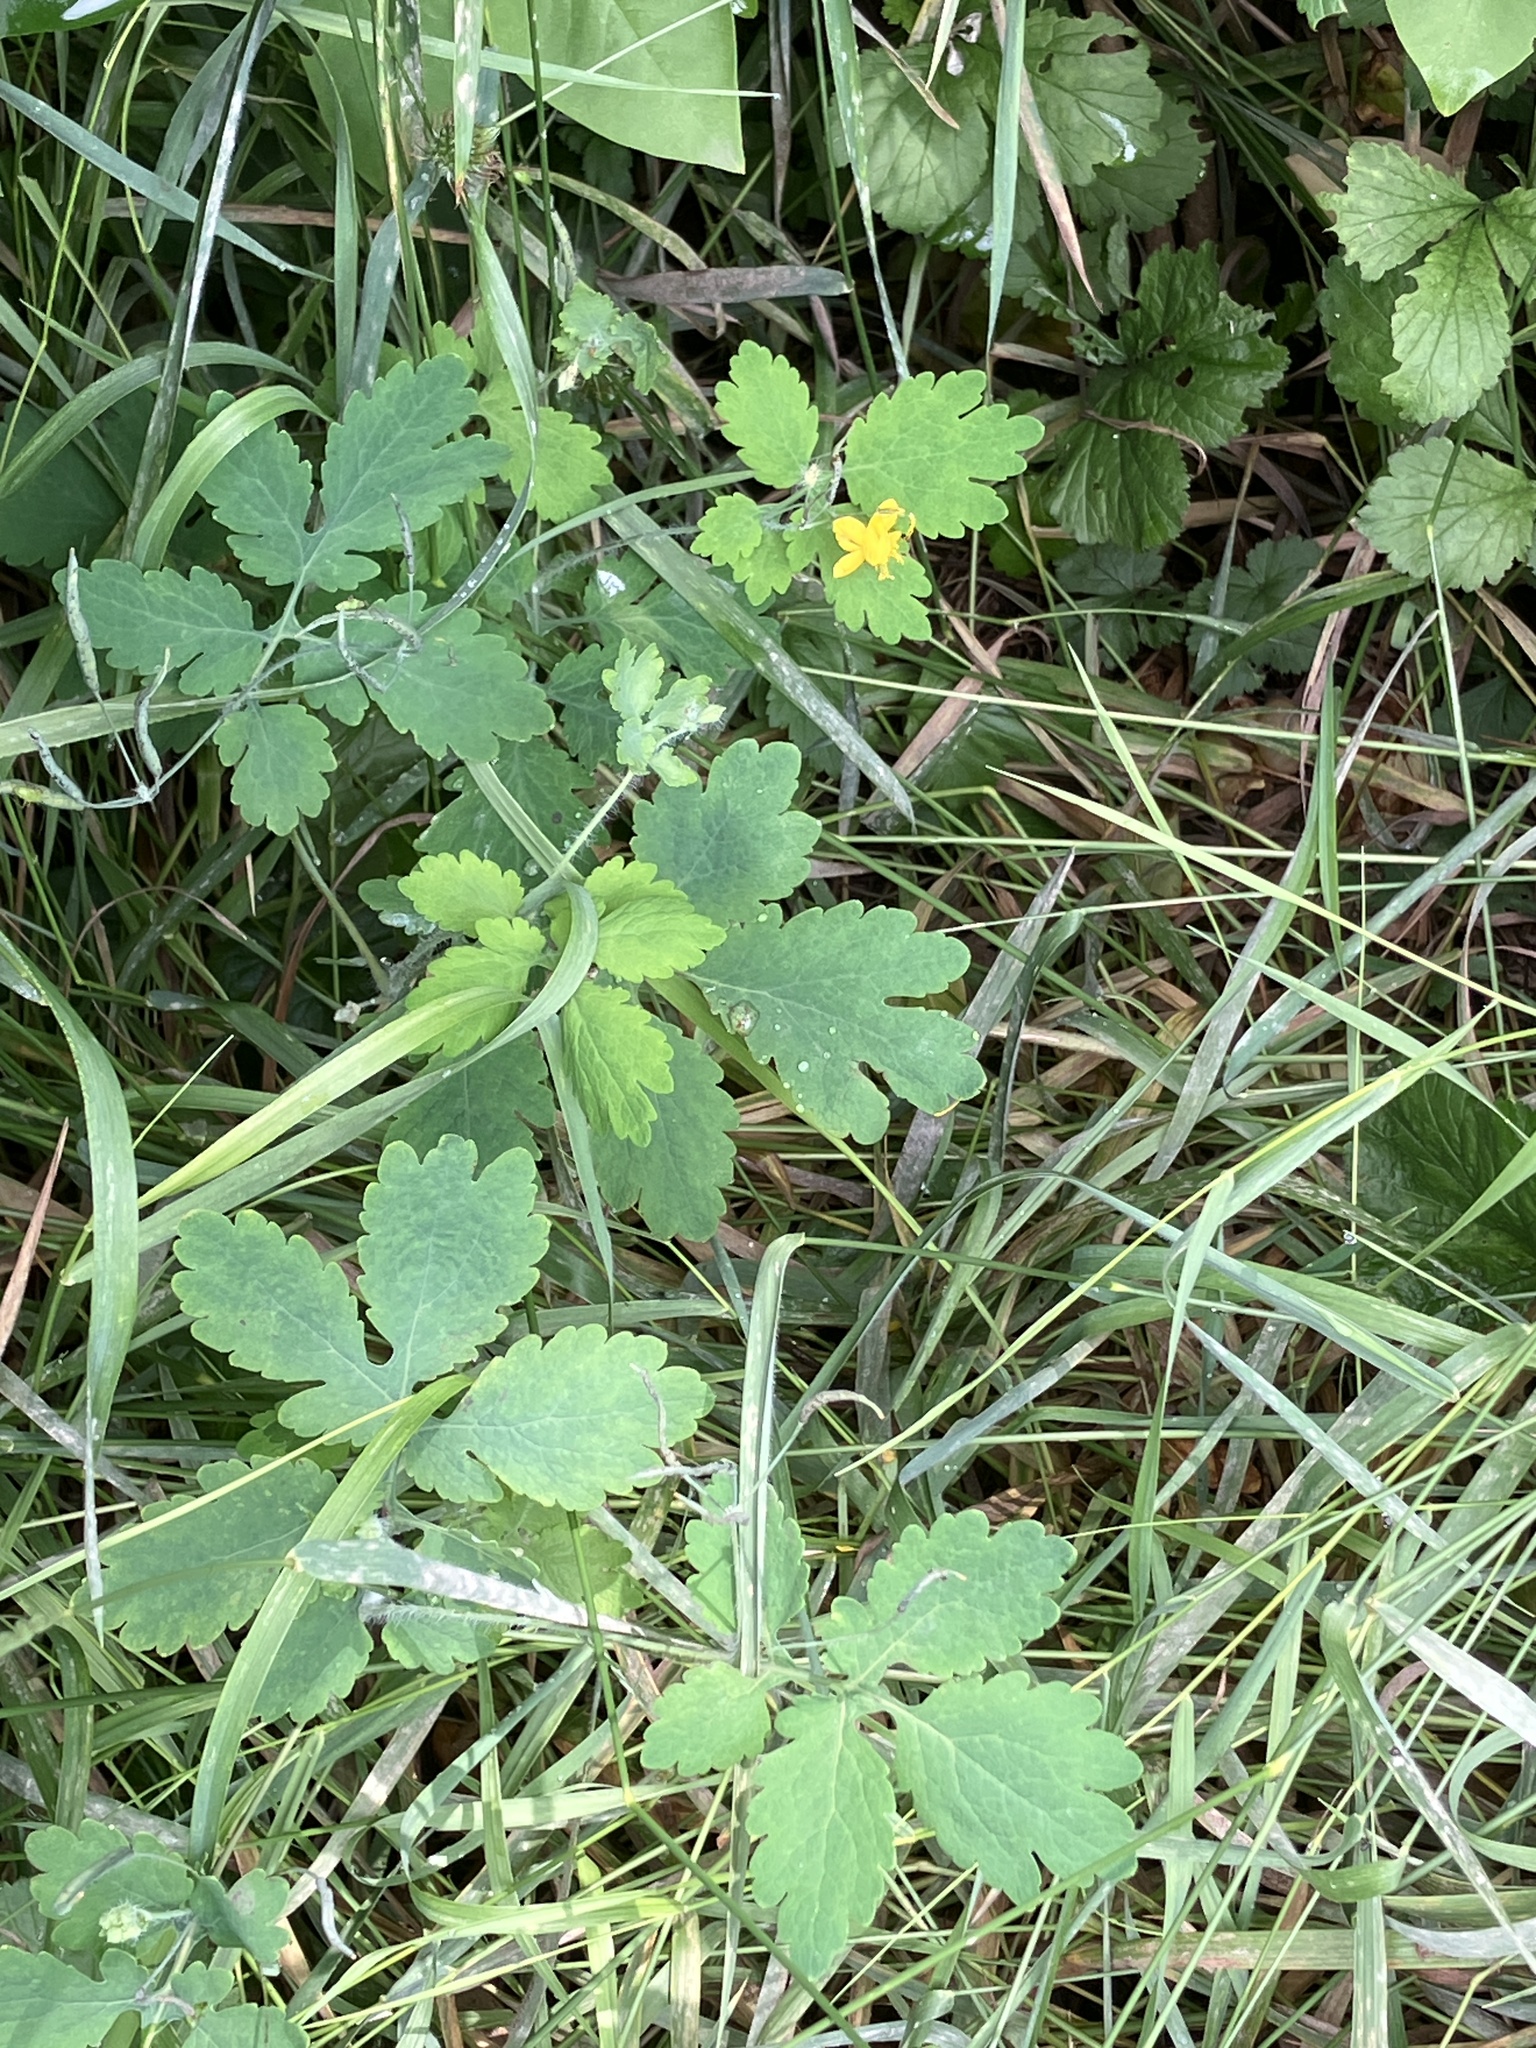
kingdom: Plantae
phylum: Tracheophyta
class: Magnoliopsida
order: Ranunculales
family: Papaveraceae
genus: Chelidonium
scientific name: Chelidonium majus
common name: Greater celandine
